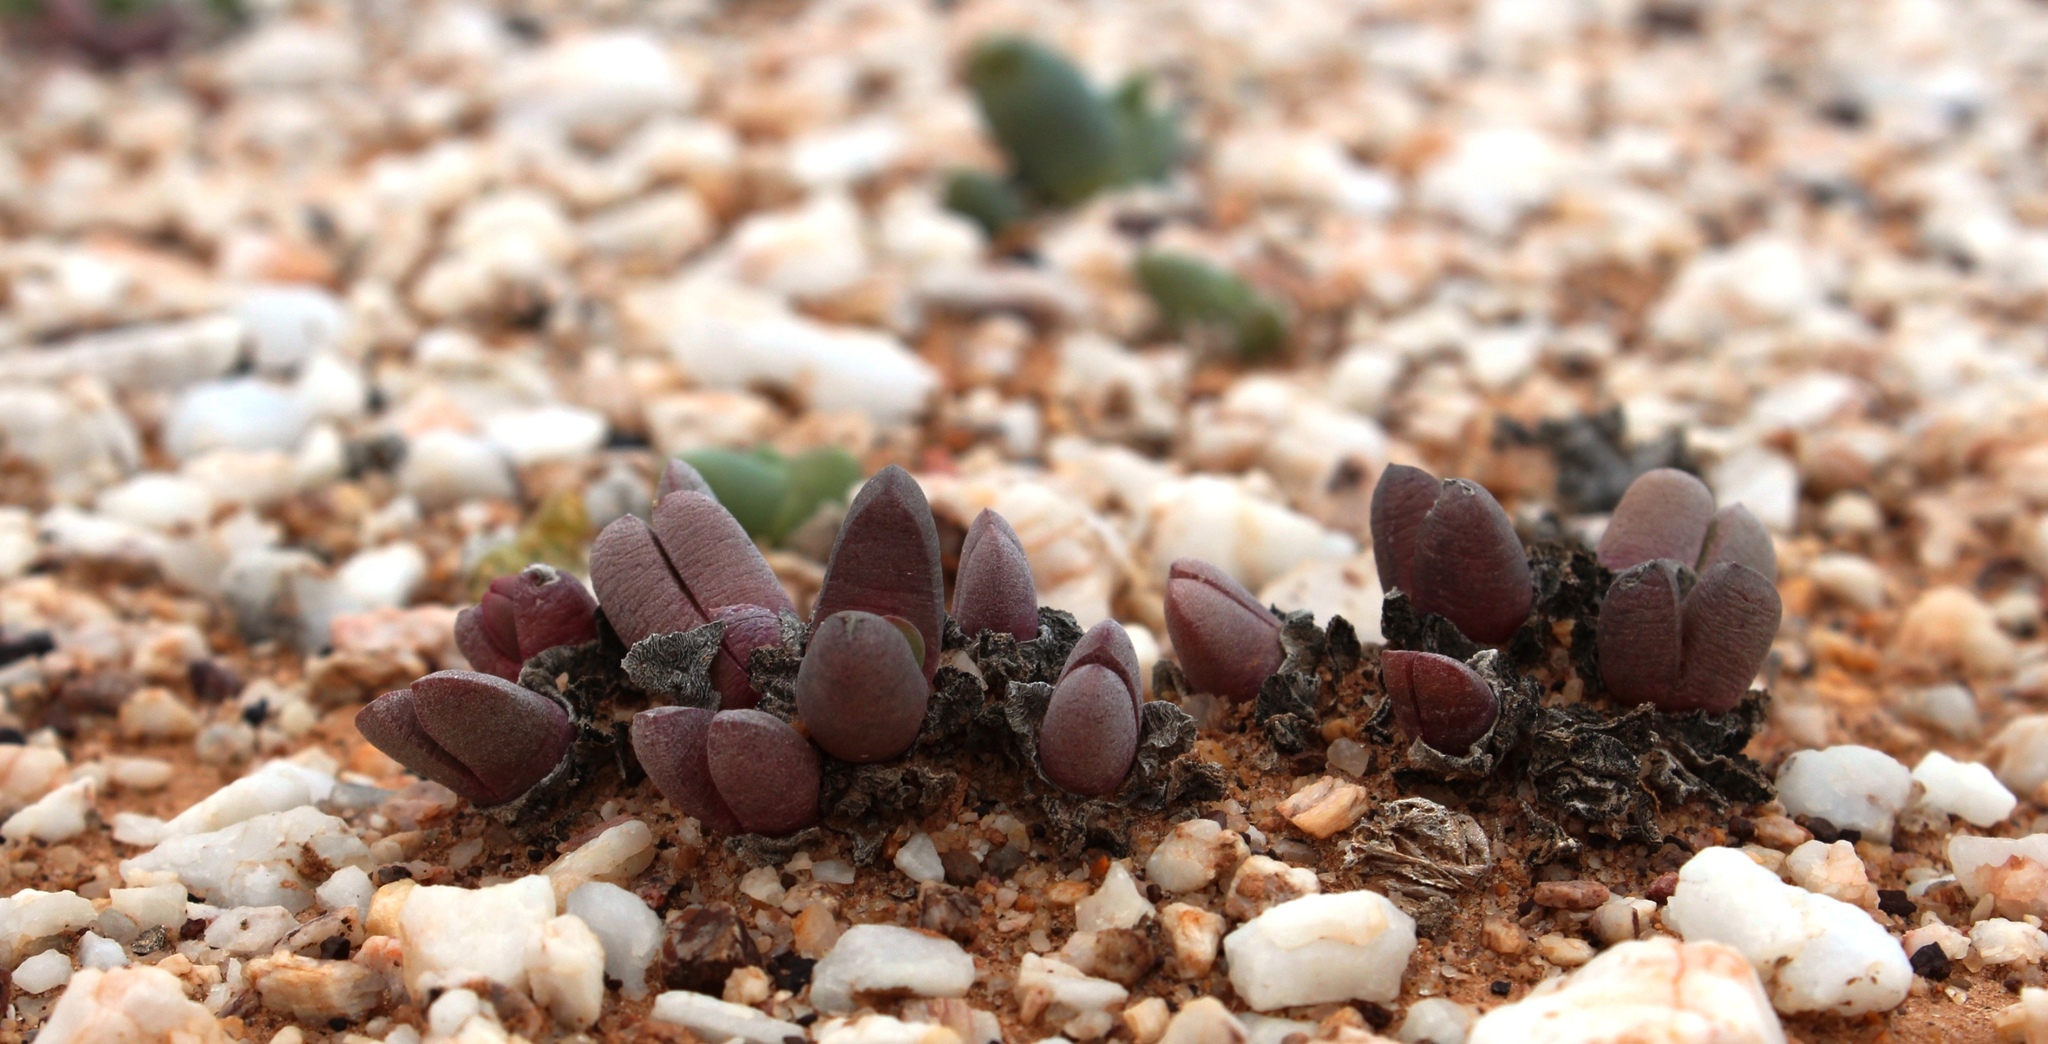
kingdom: Plantae
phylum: Tracheophyta
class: Magnoliopsida
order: Caryophyllales
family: Aizoaceae
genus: Cephalophyllum
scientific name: Cephalophyllum spissum
